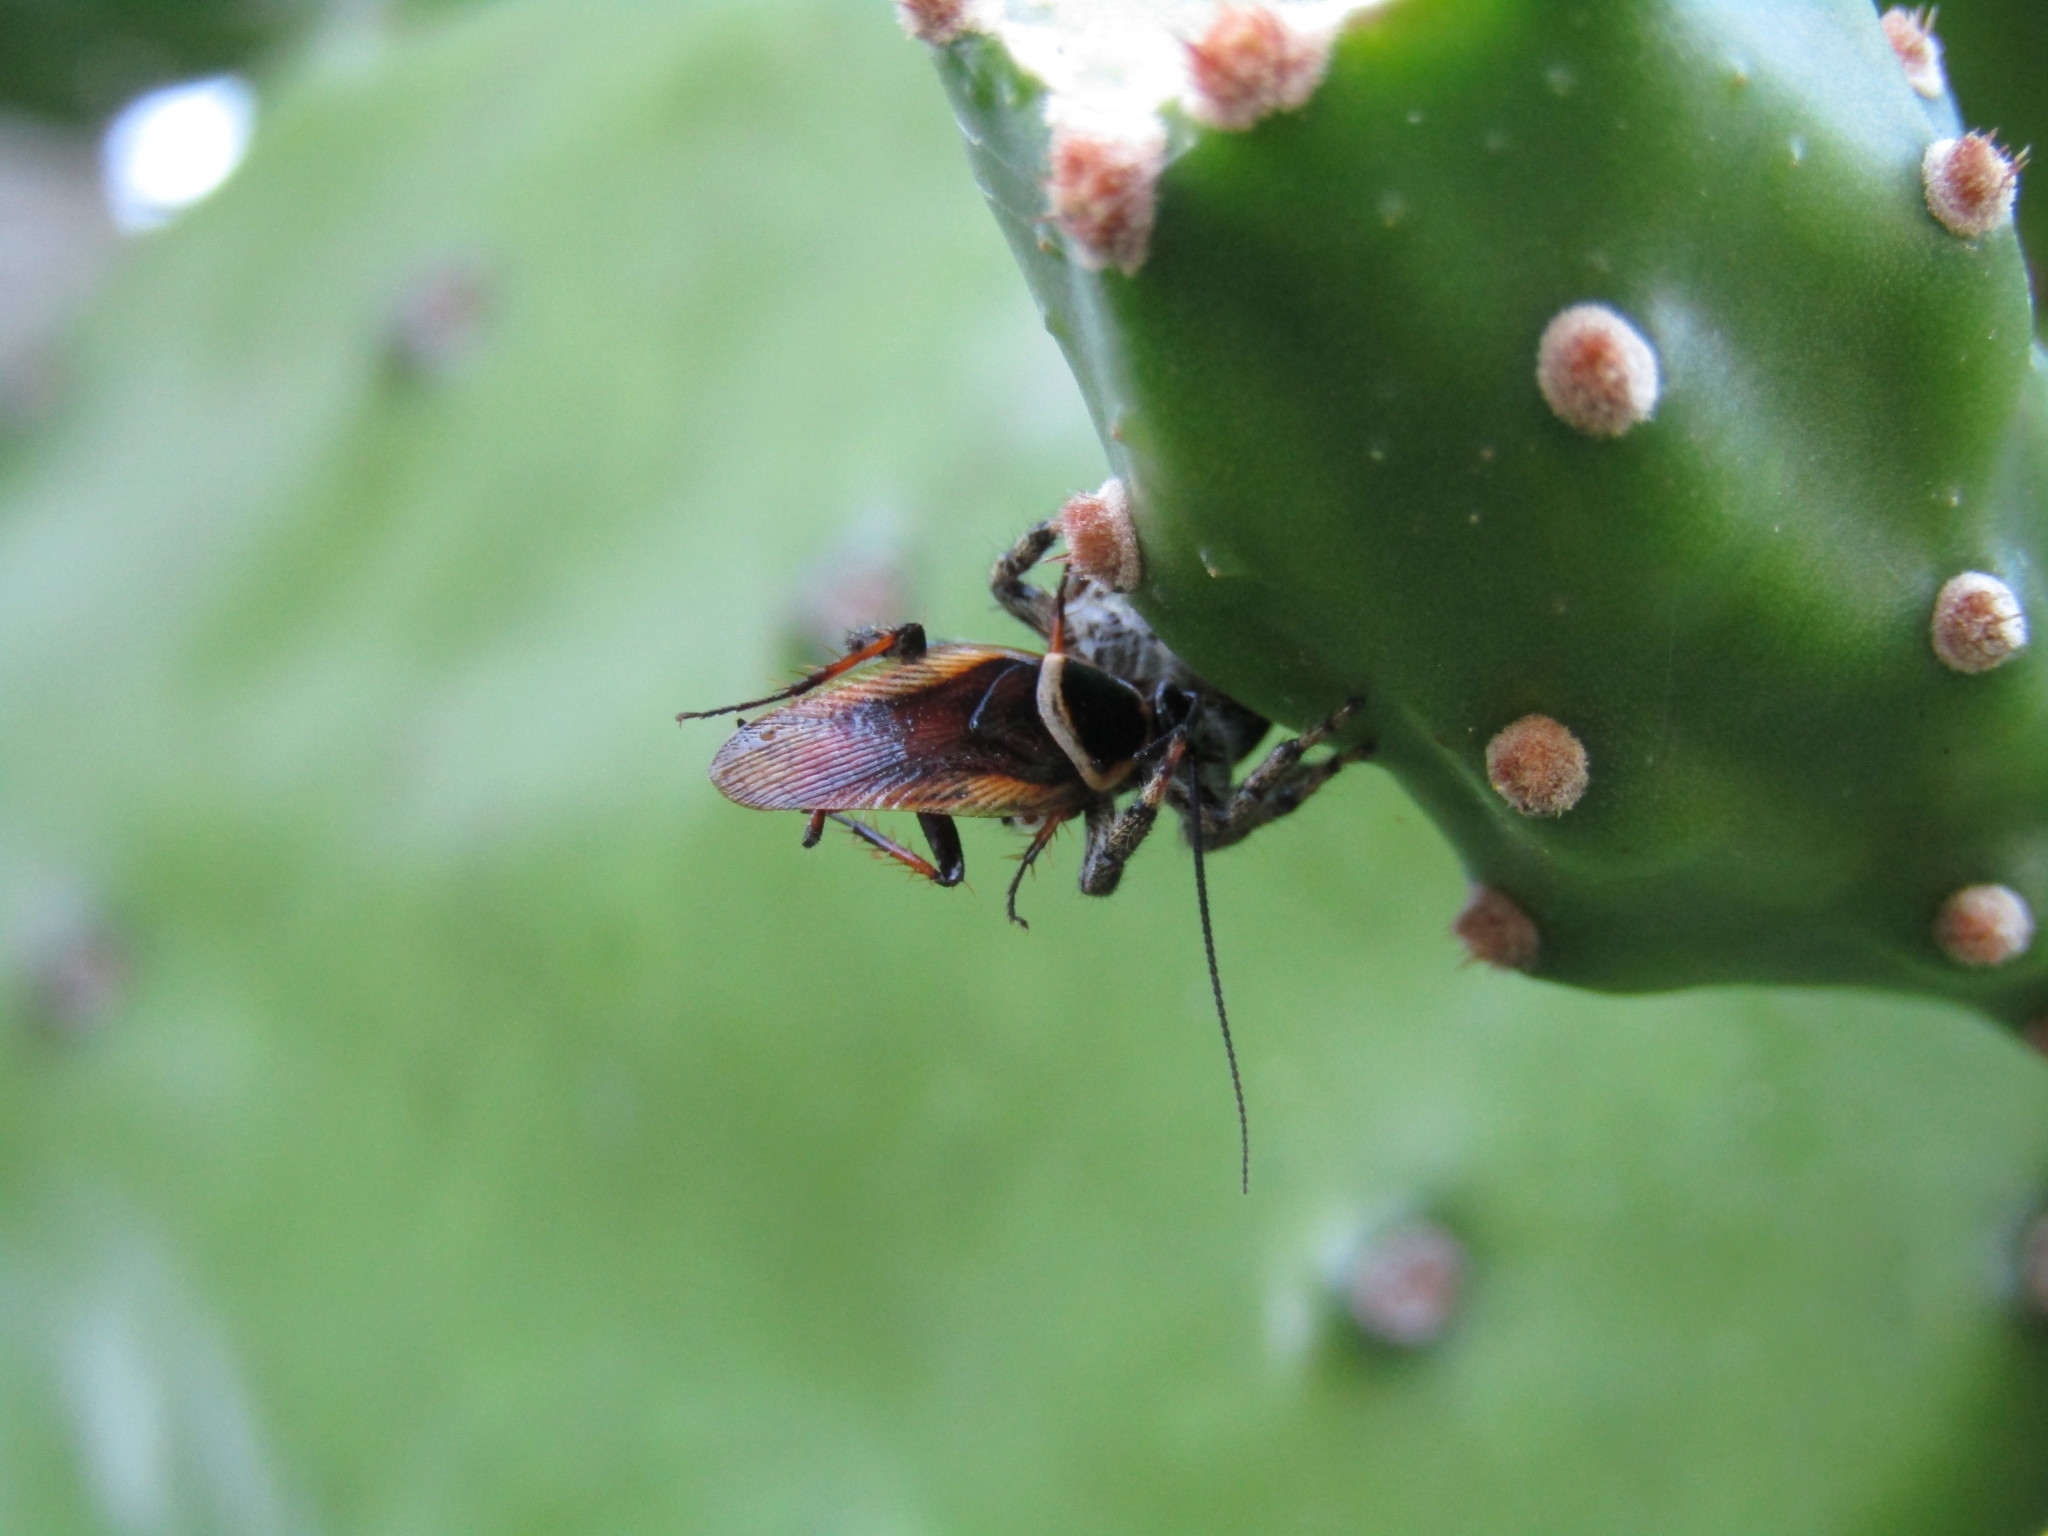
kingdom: Animalia
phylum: Arthropoda
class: Arachnida
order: Araneae
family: Salticidae
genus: Phiale
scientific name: Phiale roburifoliata
